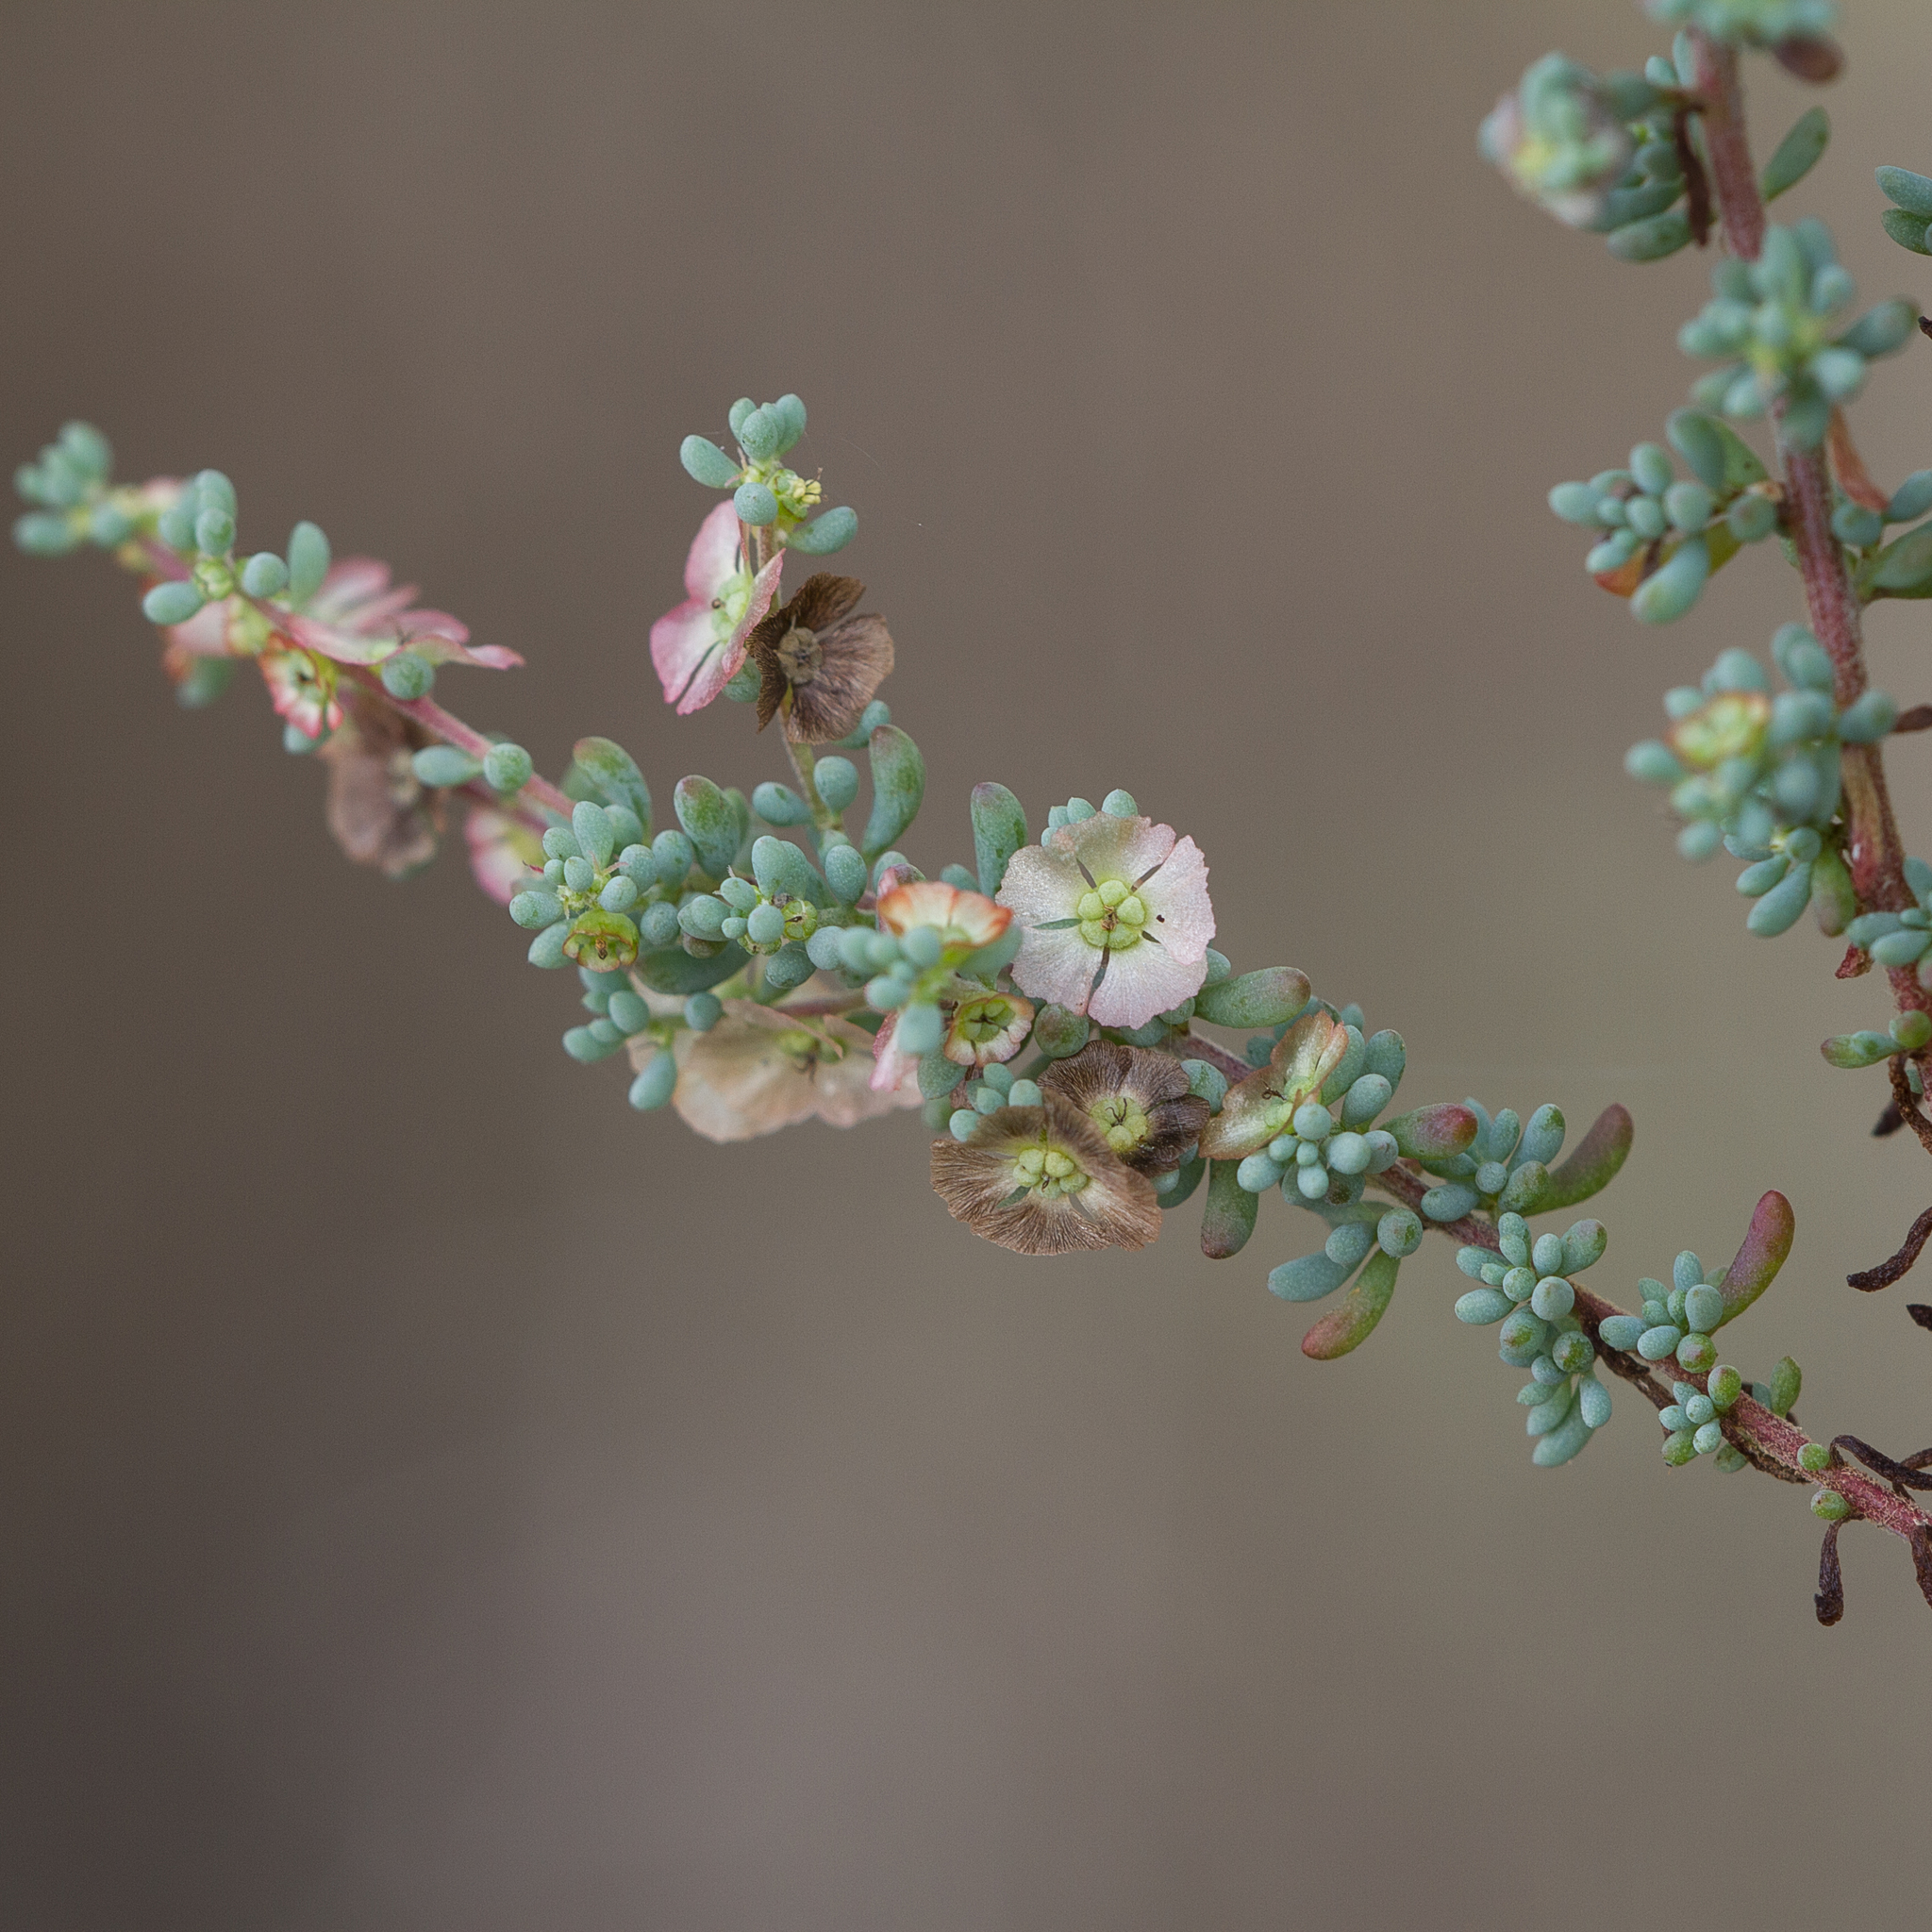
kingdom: Plantae
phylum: Tracheophyta
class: Magnoliopsida
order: Caryophyllales
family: Amaranthaceae
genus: Maireana
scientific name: Maireana brevifolia
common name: Eastern cottonbush
